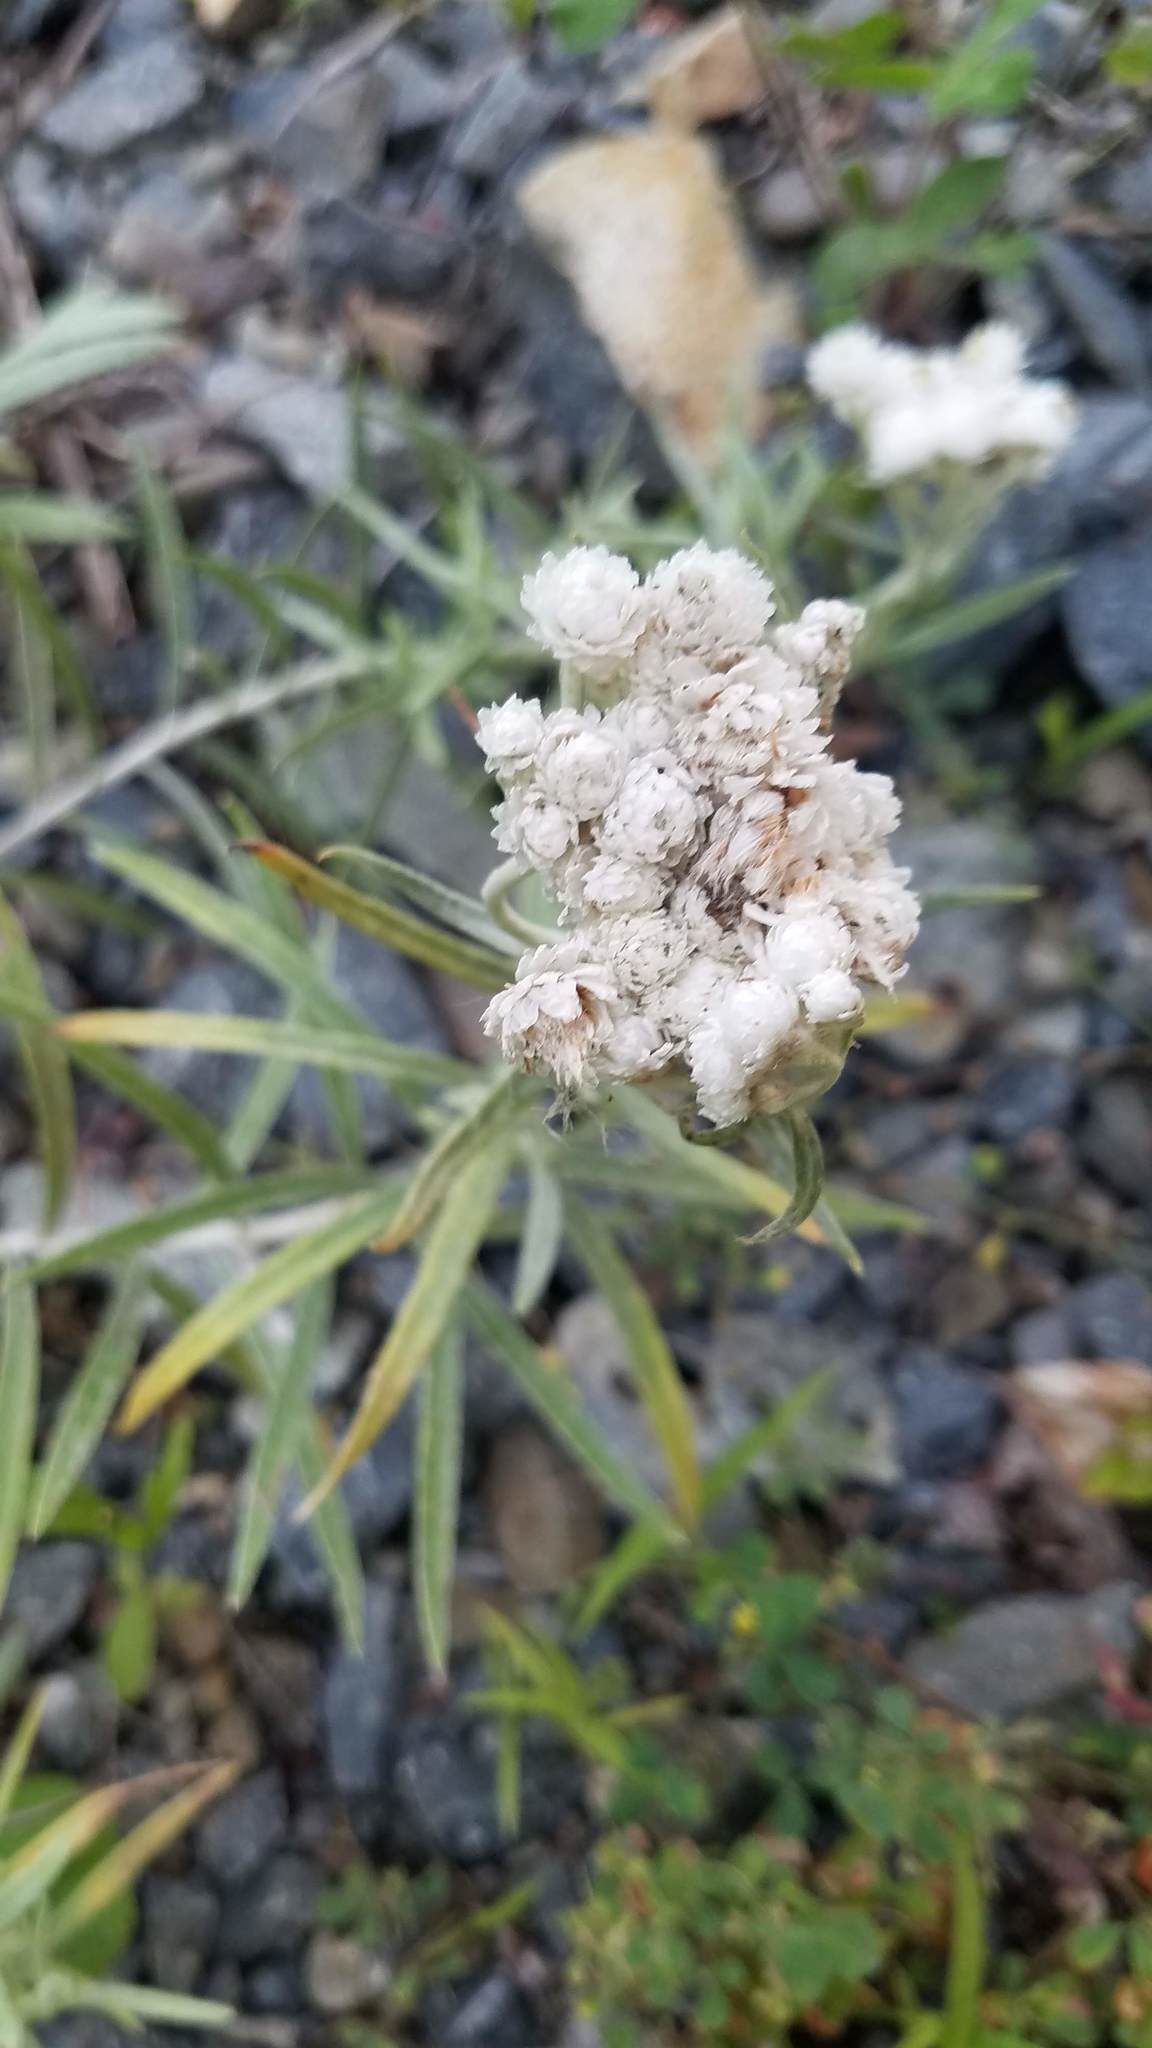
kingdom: Plantae
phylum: Tracheophyta
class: Magnoliopsida
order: Asterales
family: Asteraceae
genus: Anaphalis
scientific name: Anaphalis margaritacea
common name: Pearly everlasting
